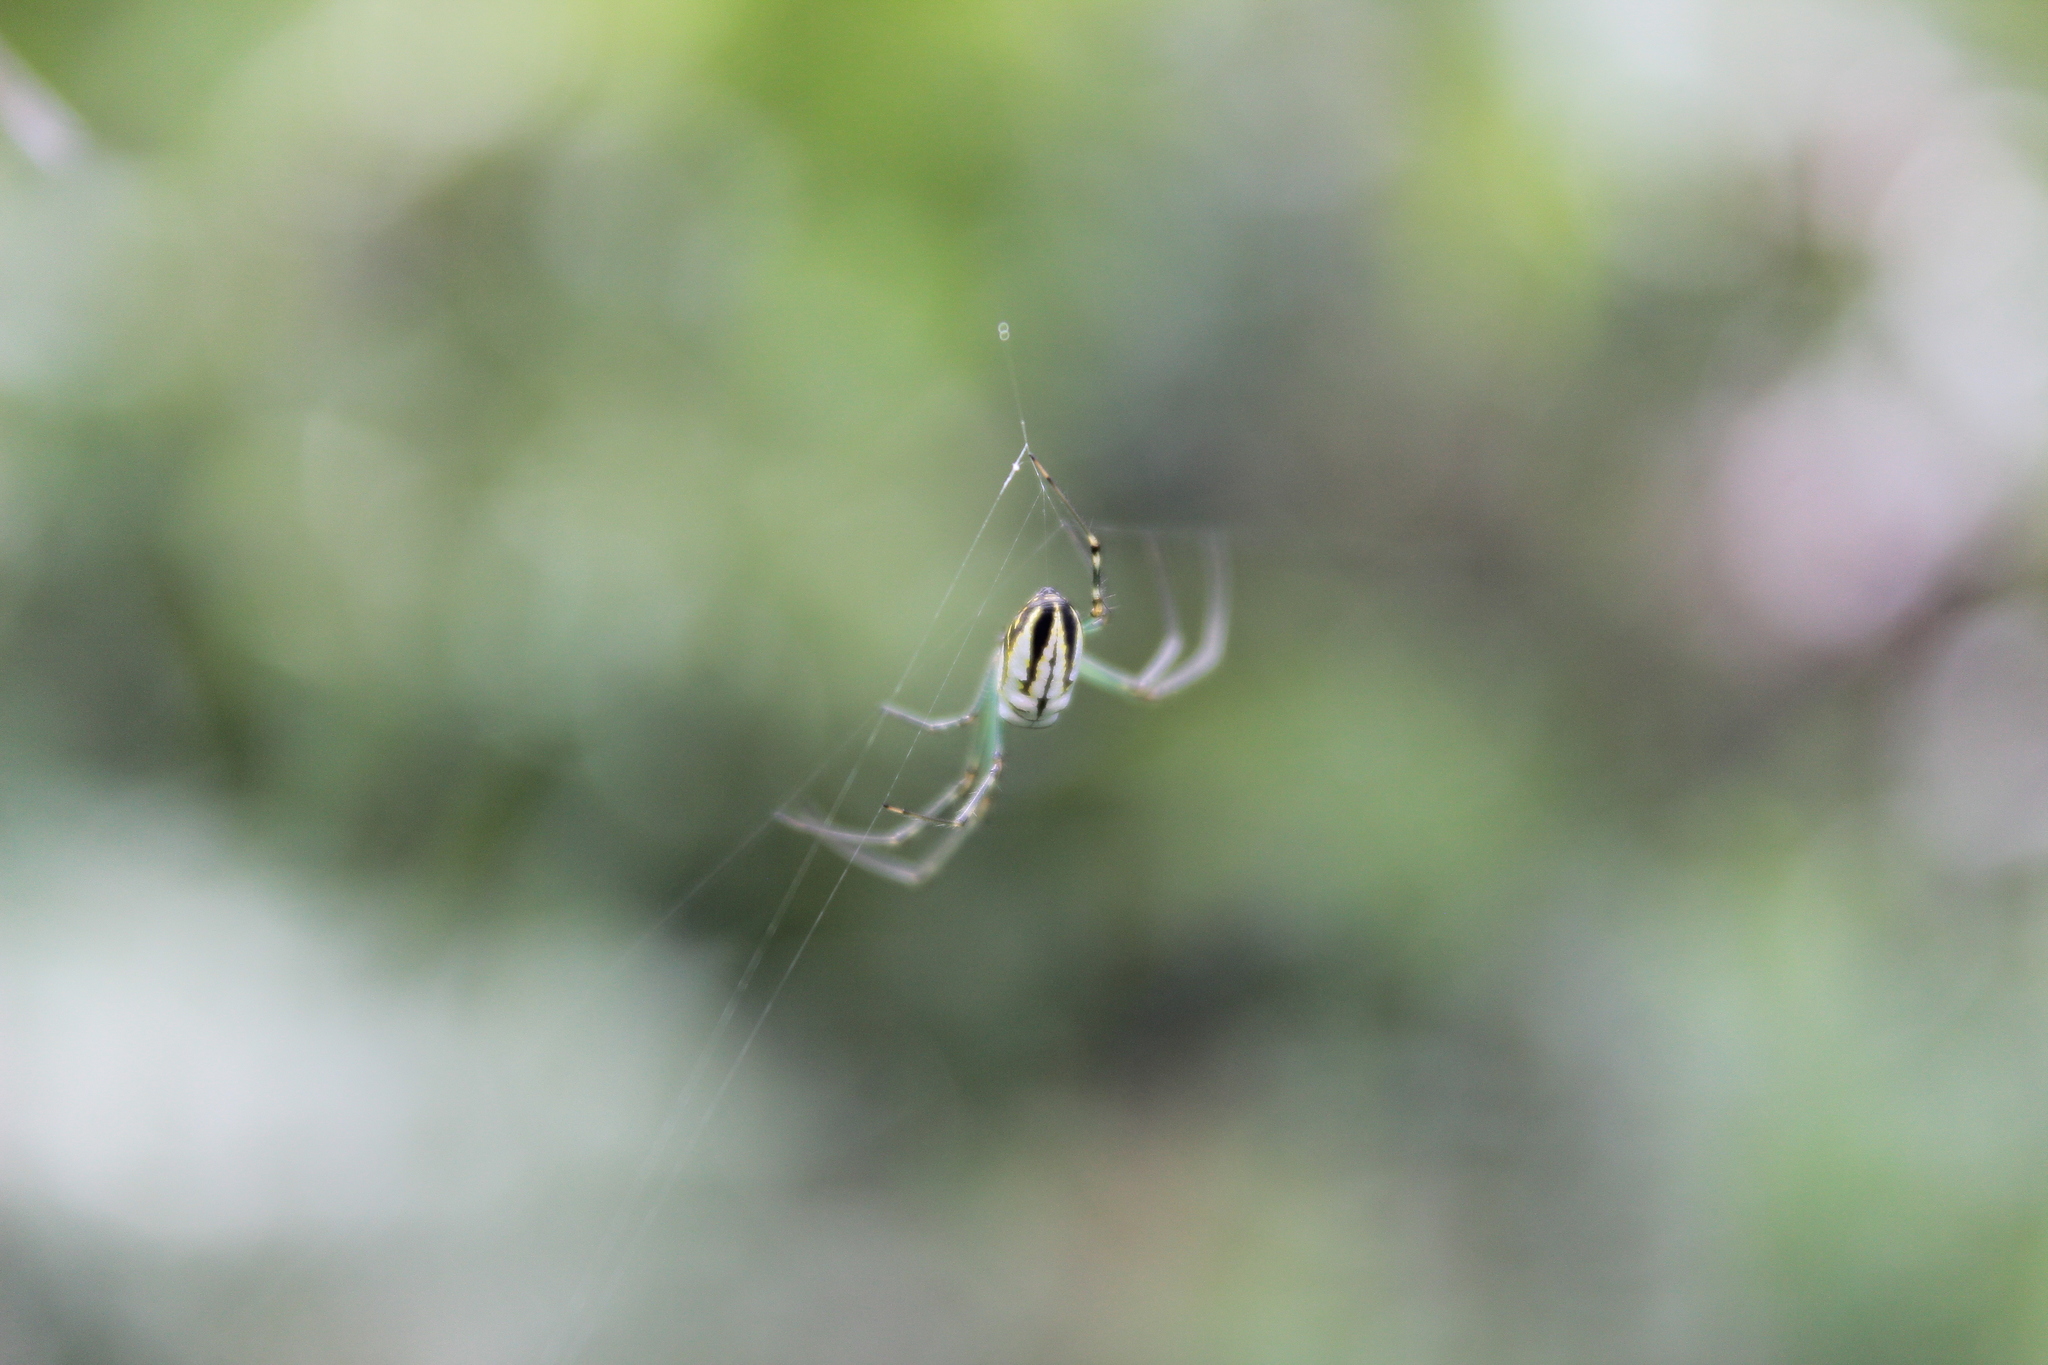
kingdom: Animalia
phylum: Arthropoda
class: Arachnida
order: Araneae
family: Tetragnathidae
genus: Leucauge
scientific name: Leucauge dromedaria
